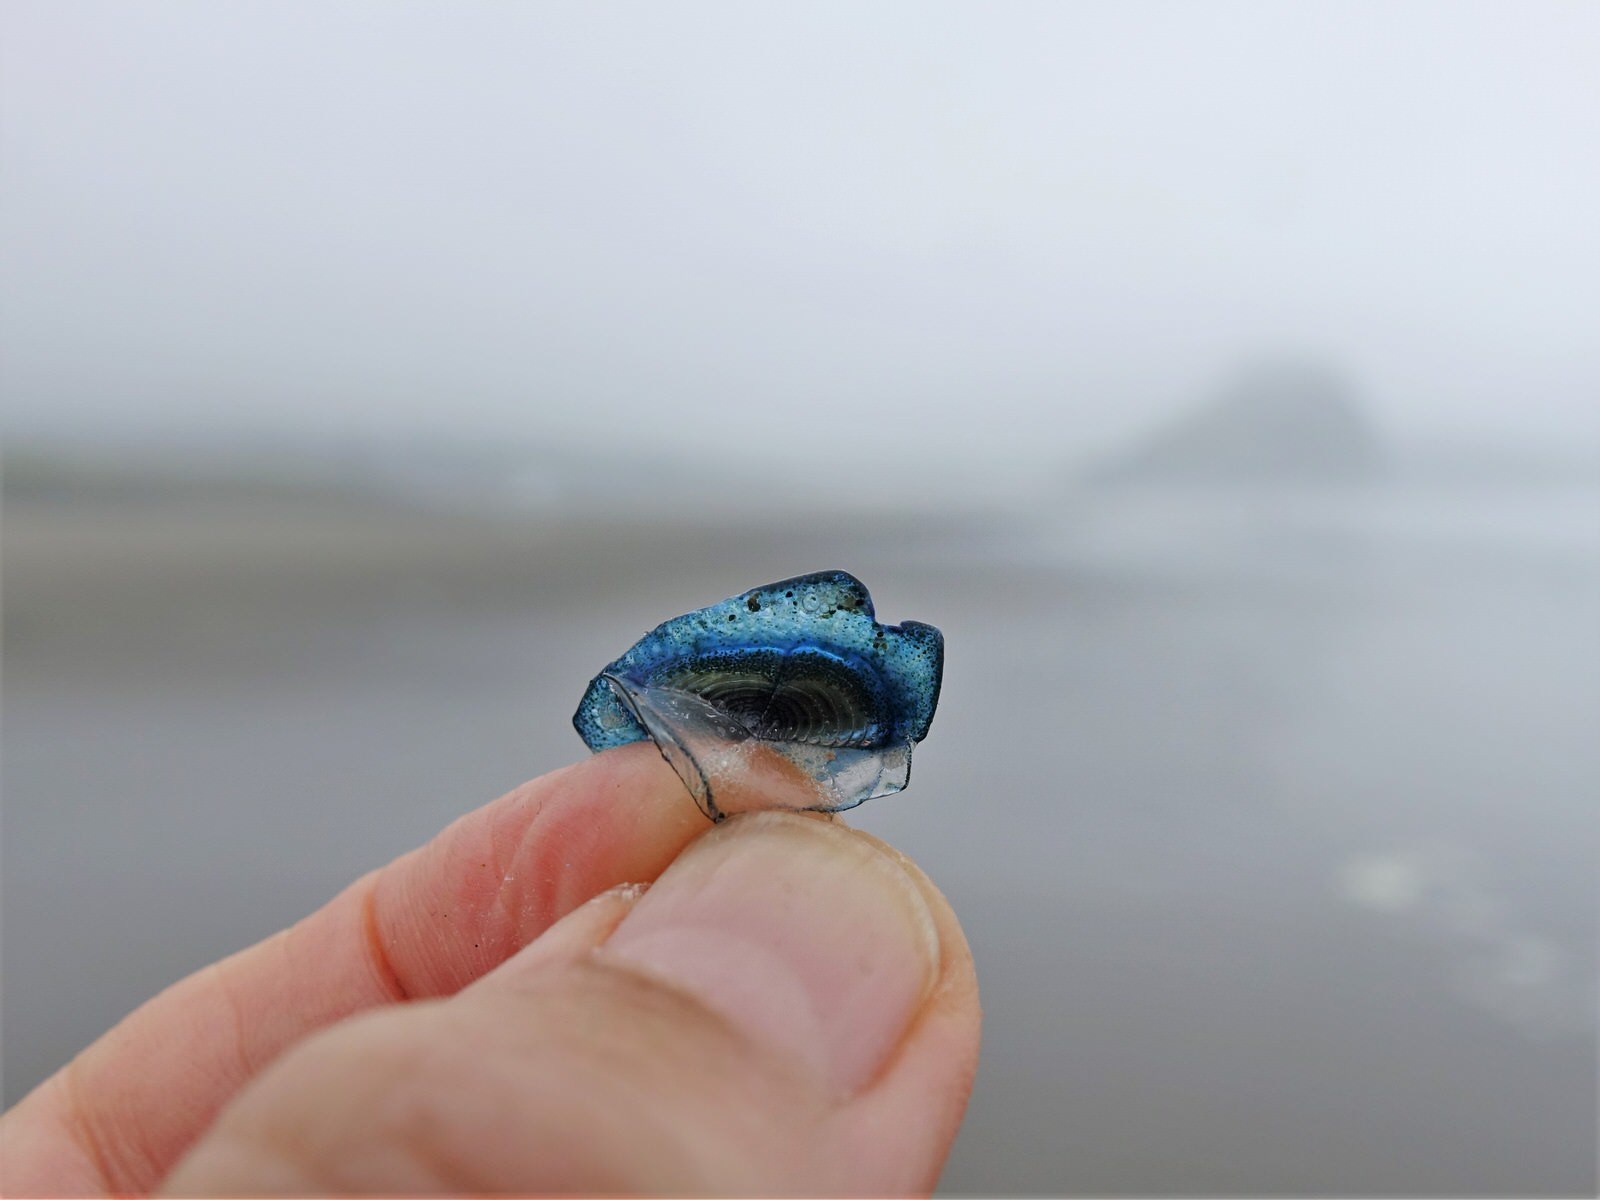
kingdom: Animalia
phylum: Cnidaria
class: Hydrozoa
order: Anthoathecata
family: Porpitidae
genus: Velella
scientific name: Velella velella
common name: By-the-wind-sailor
